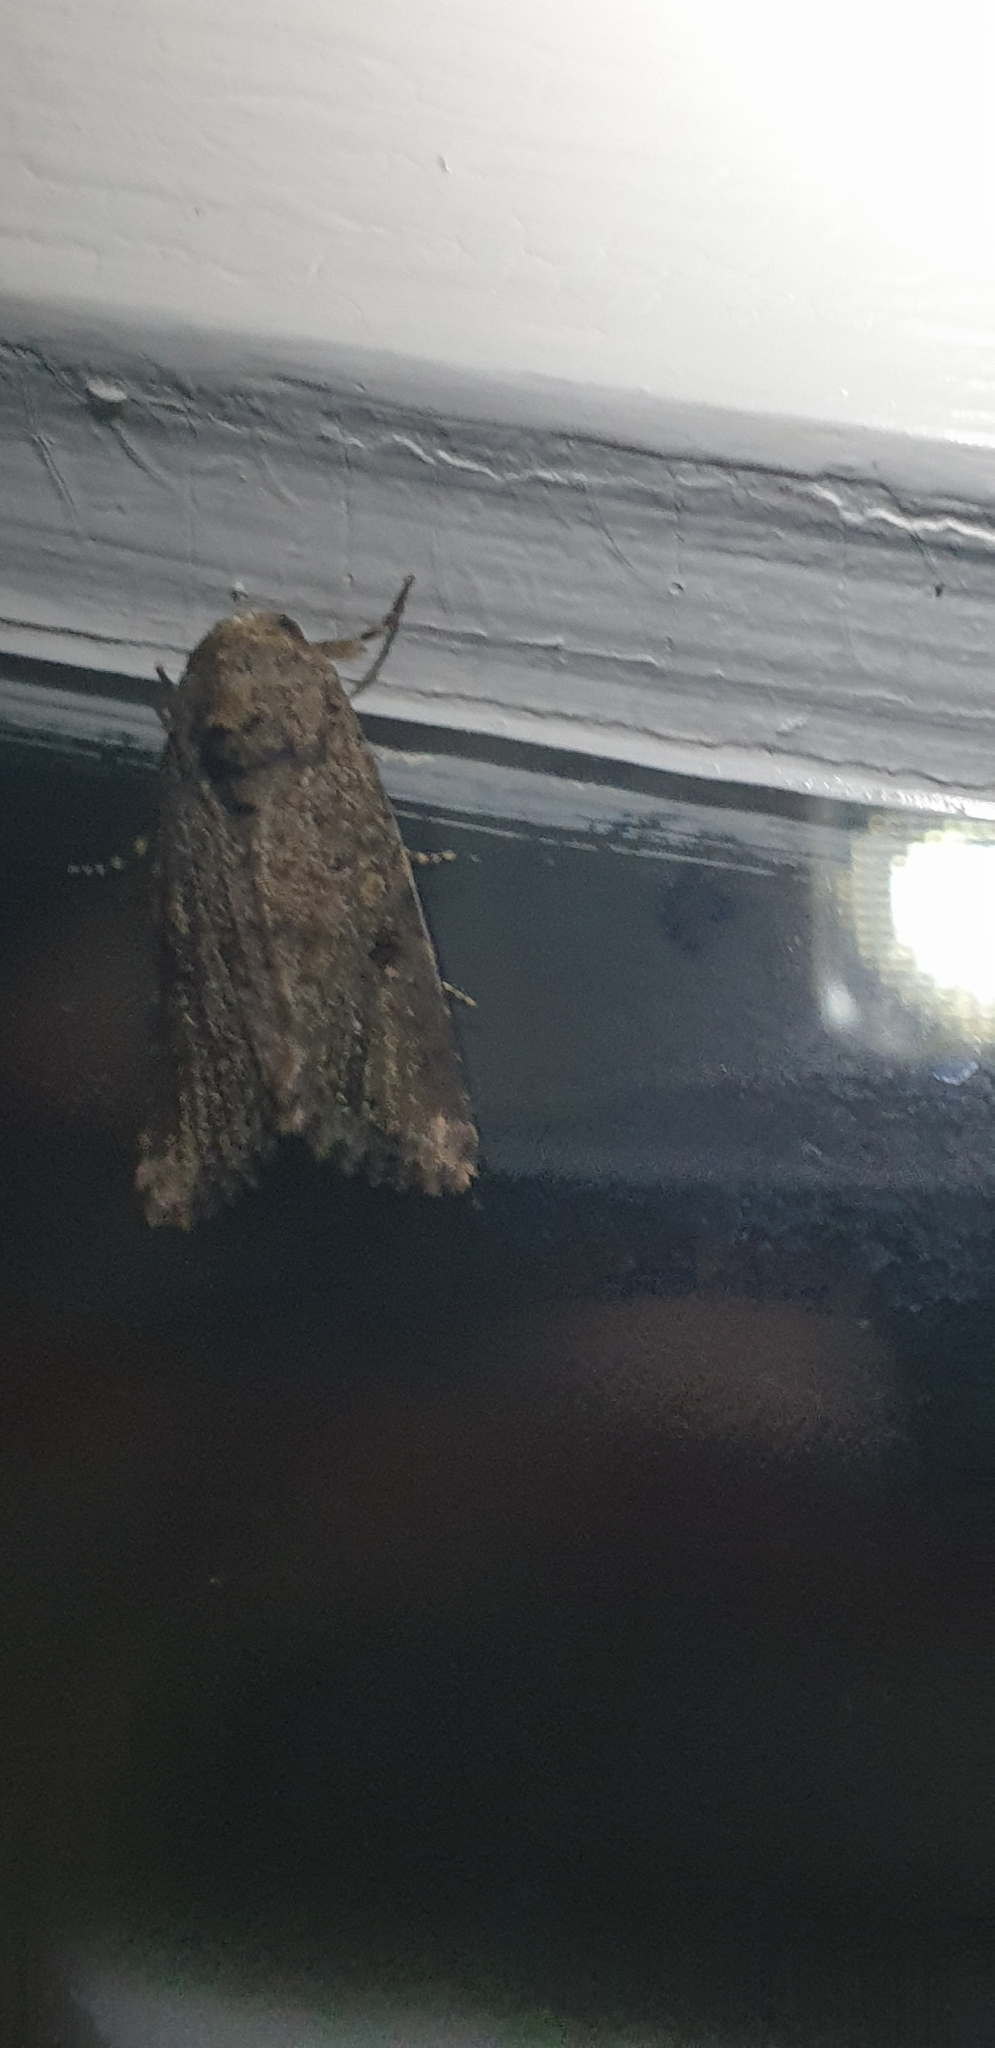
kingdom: Animalia
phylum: Arthropoda
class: Insecta
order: Lepidoptera
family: Noctuidae
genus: Spodoptera
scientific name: Spodoptera exempta
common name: African armyworm
